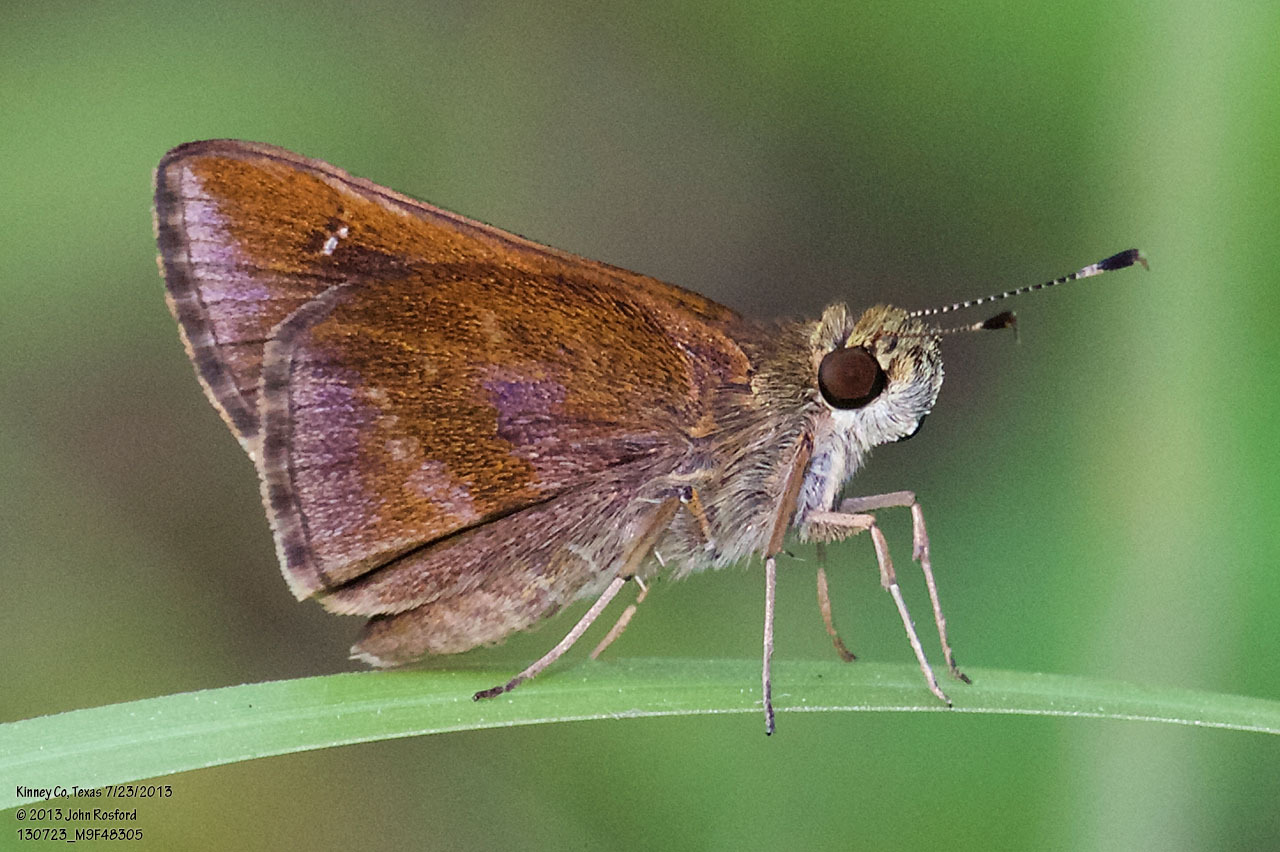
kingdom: Animalia
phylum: Arthropoda
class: Insecta
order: Lepidoptera
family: Hesperiidae
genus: Lerema
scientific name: Lerema accius
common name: Clouded skipper
